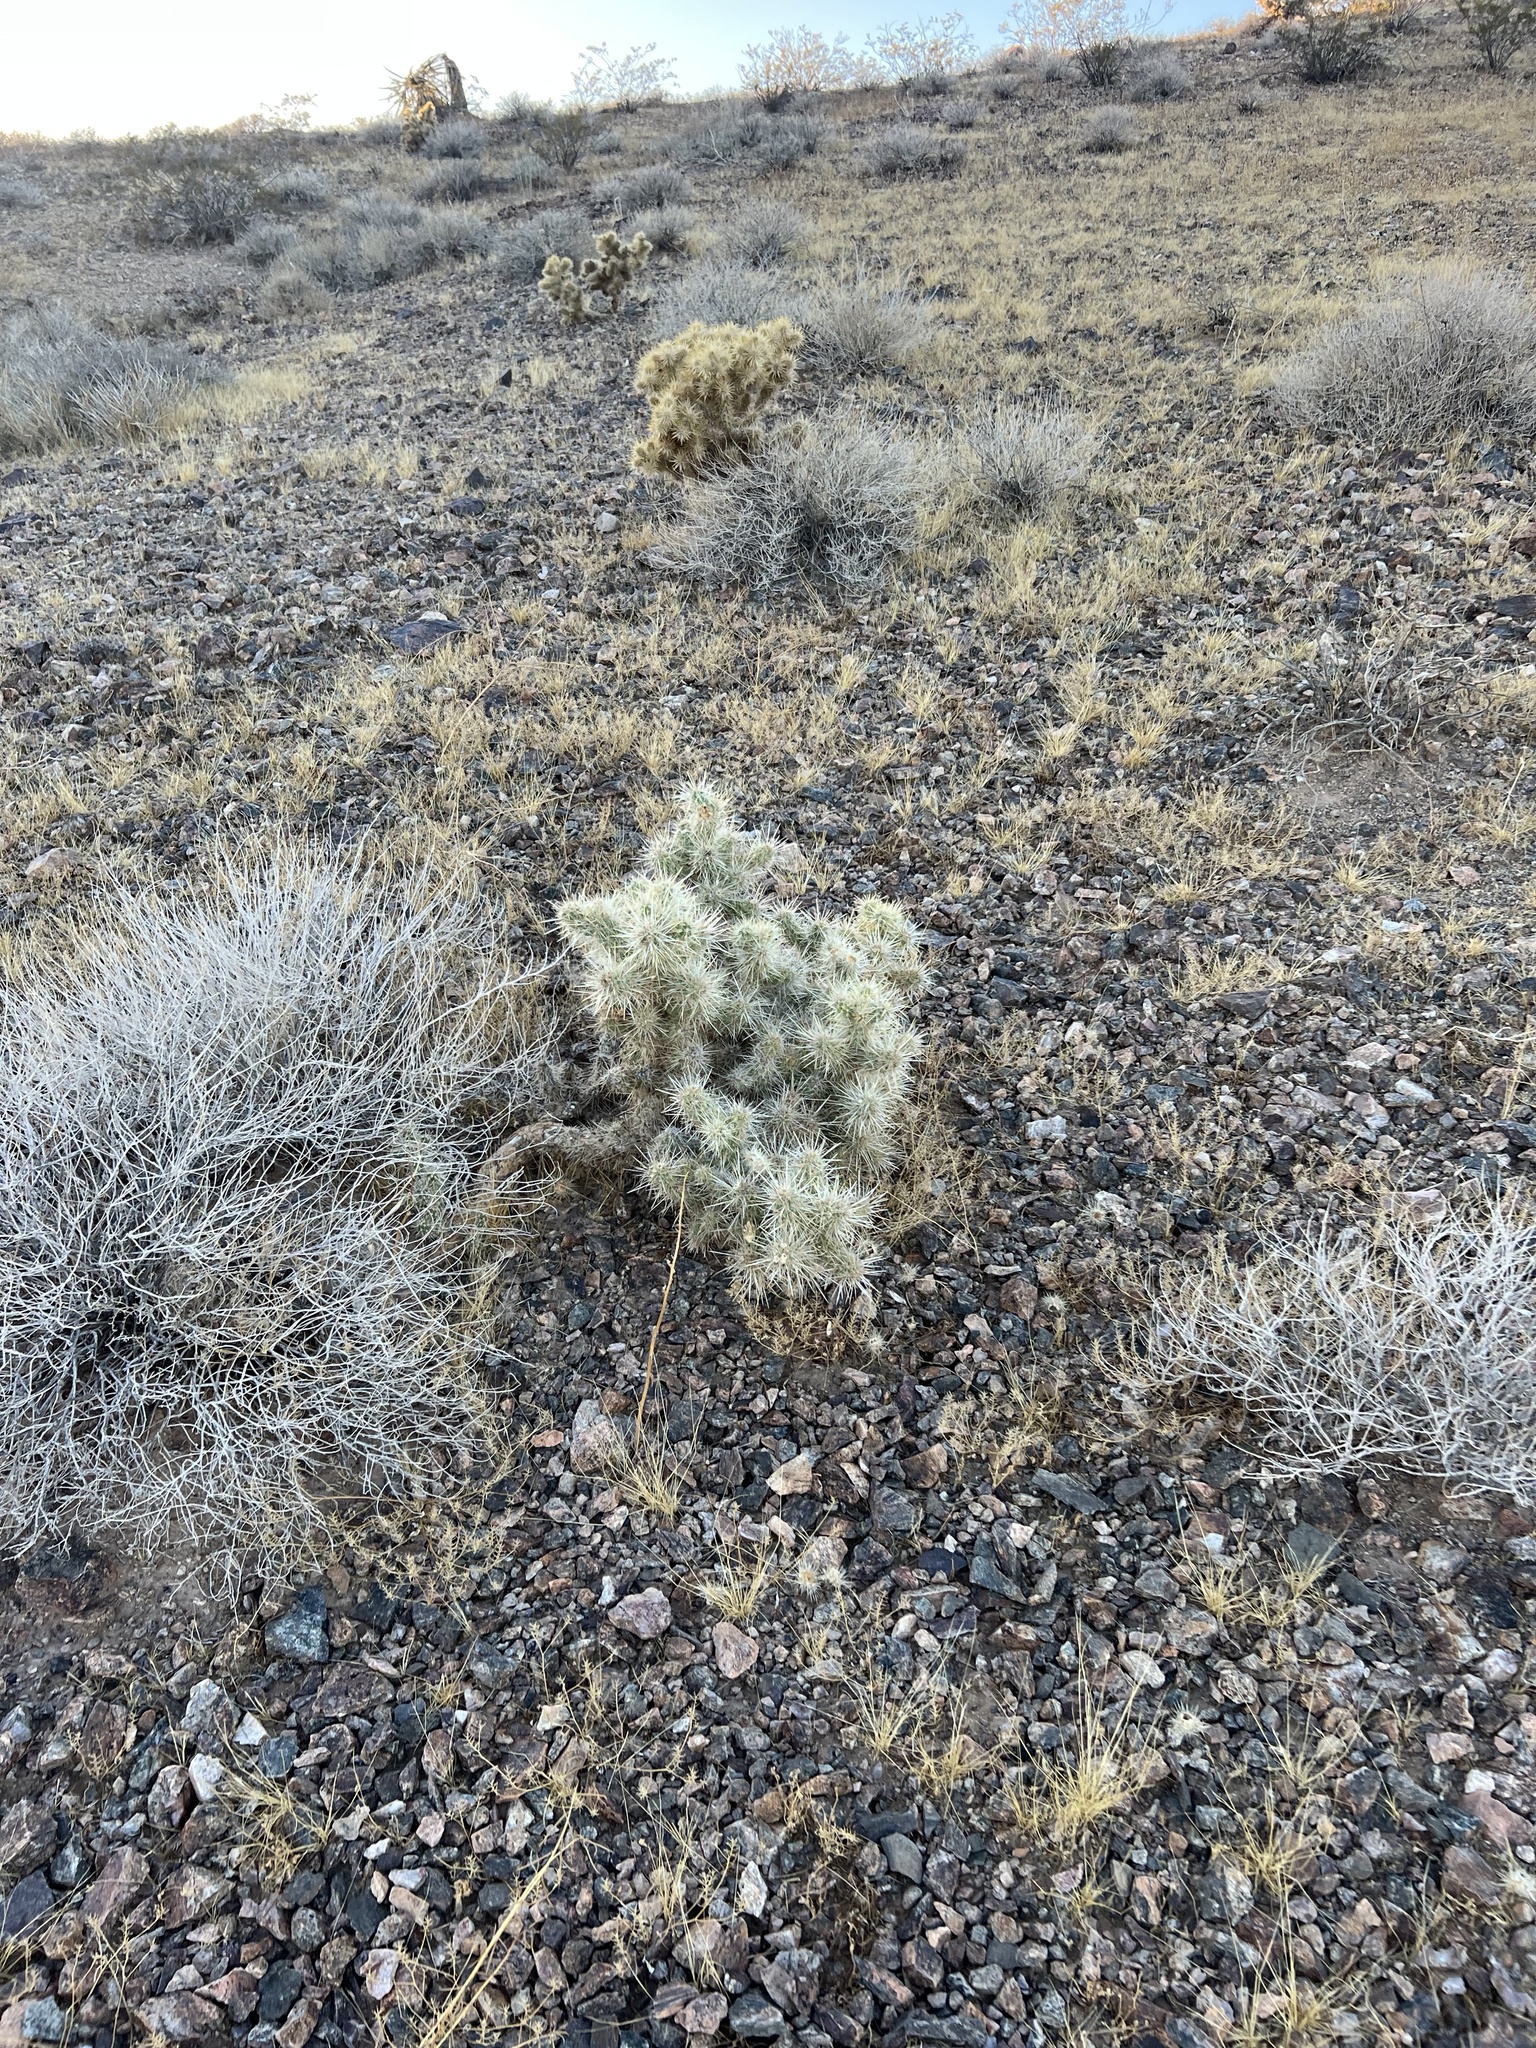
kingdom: Plantae
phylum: Tracheophyta
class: Magnoliopsida
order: Caryophyllales
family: Cactaceae
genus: Cylindropuntia
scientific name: Cylindropuntia echinocarpa
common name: Ground cholla
